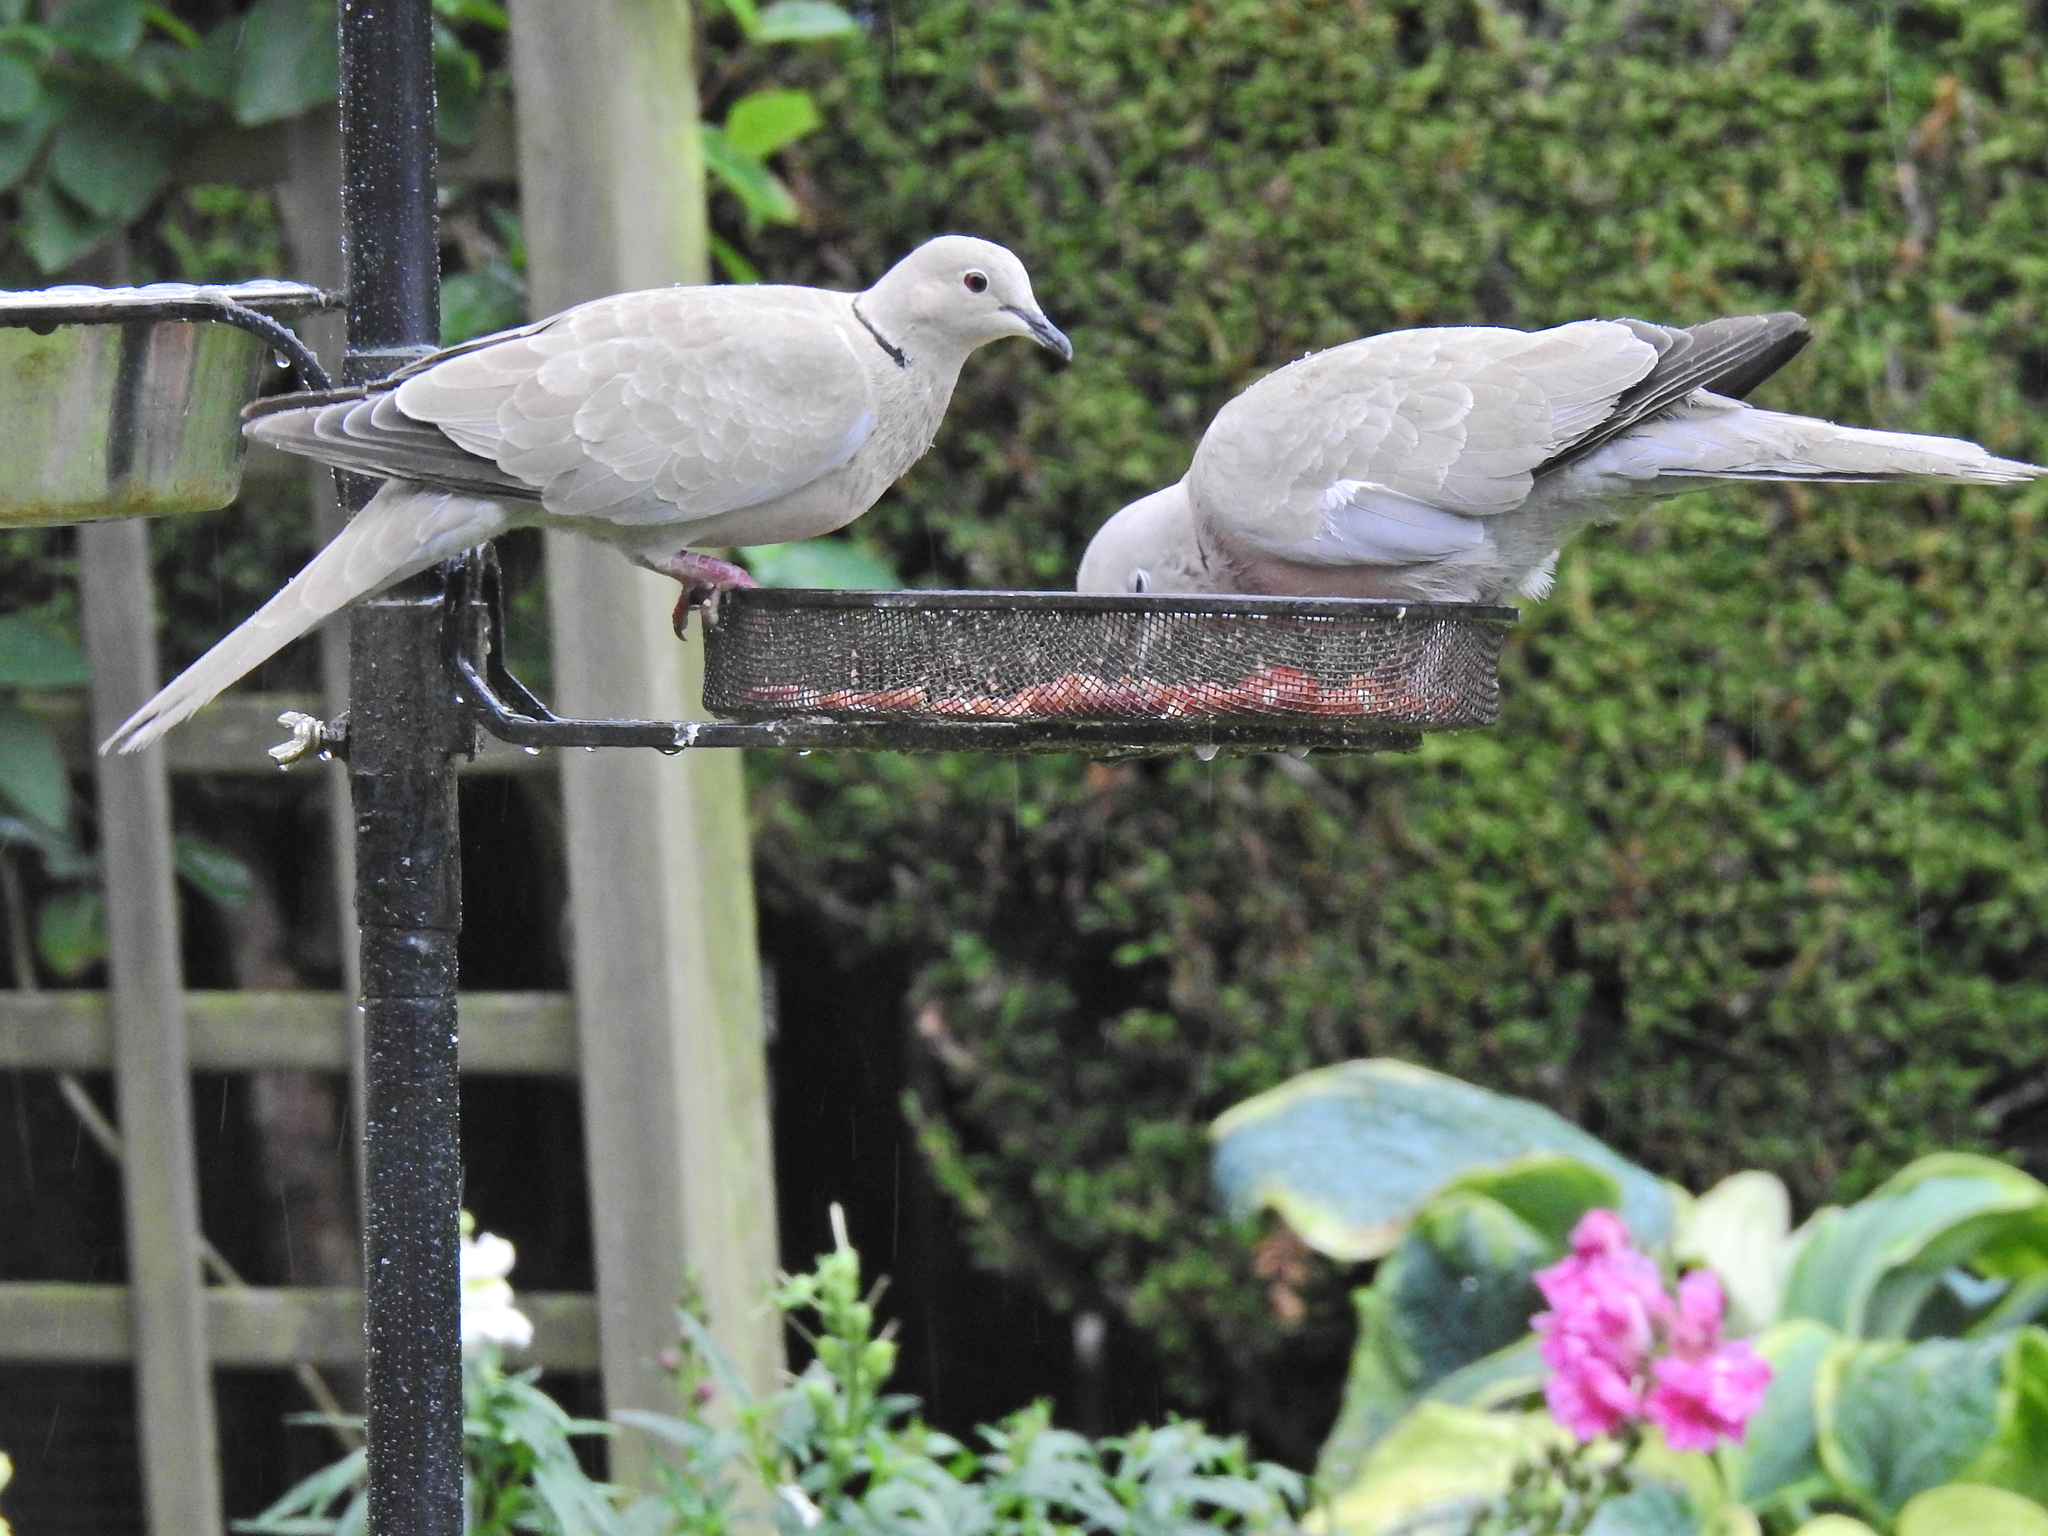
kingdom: Animalia
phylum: Chordata
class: Aves
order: Columbiformes
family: Columbidae
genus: Streptopelia
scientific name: Streptopelia decaocto
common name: Eurasian collared dove
